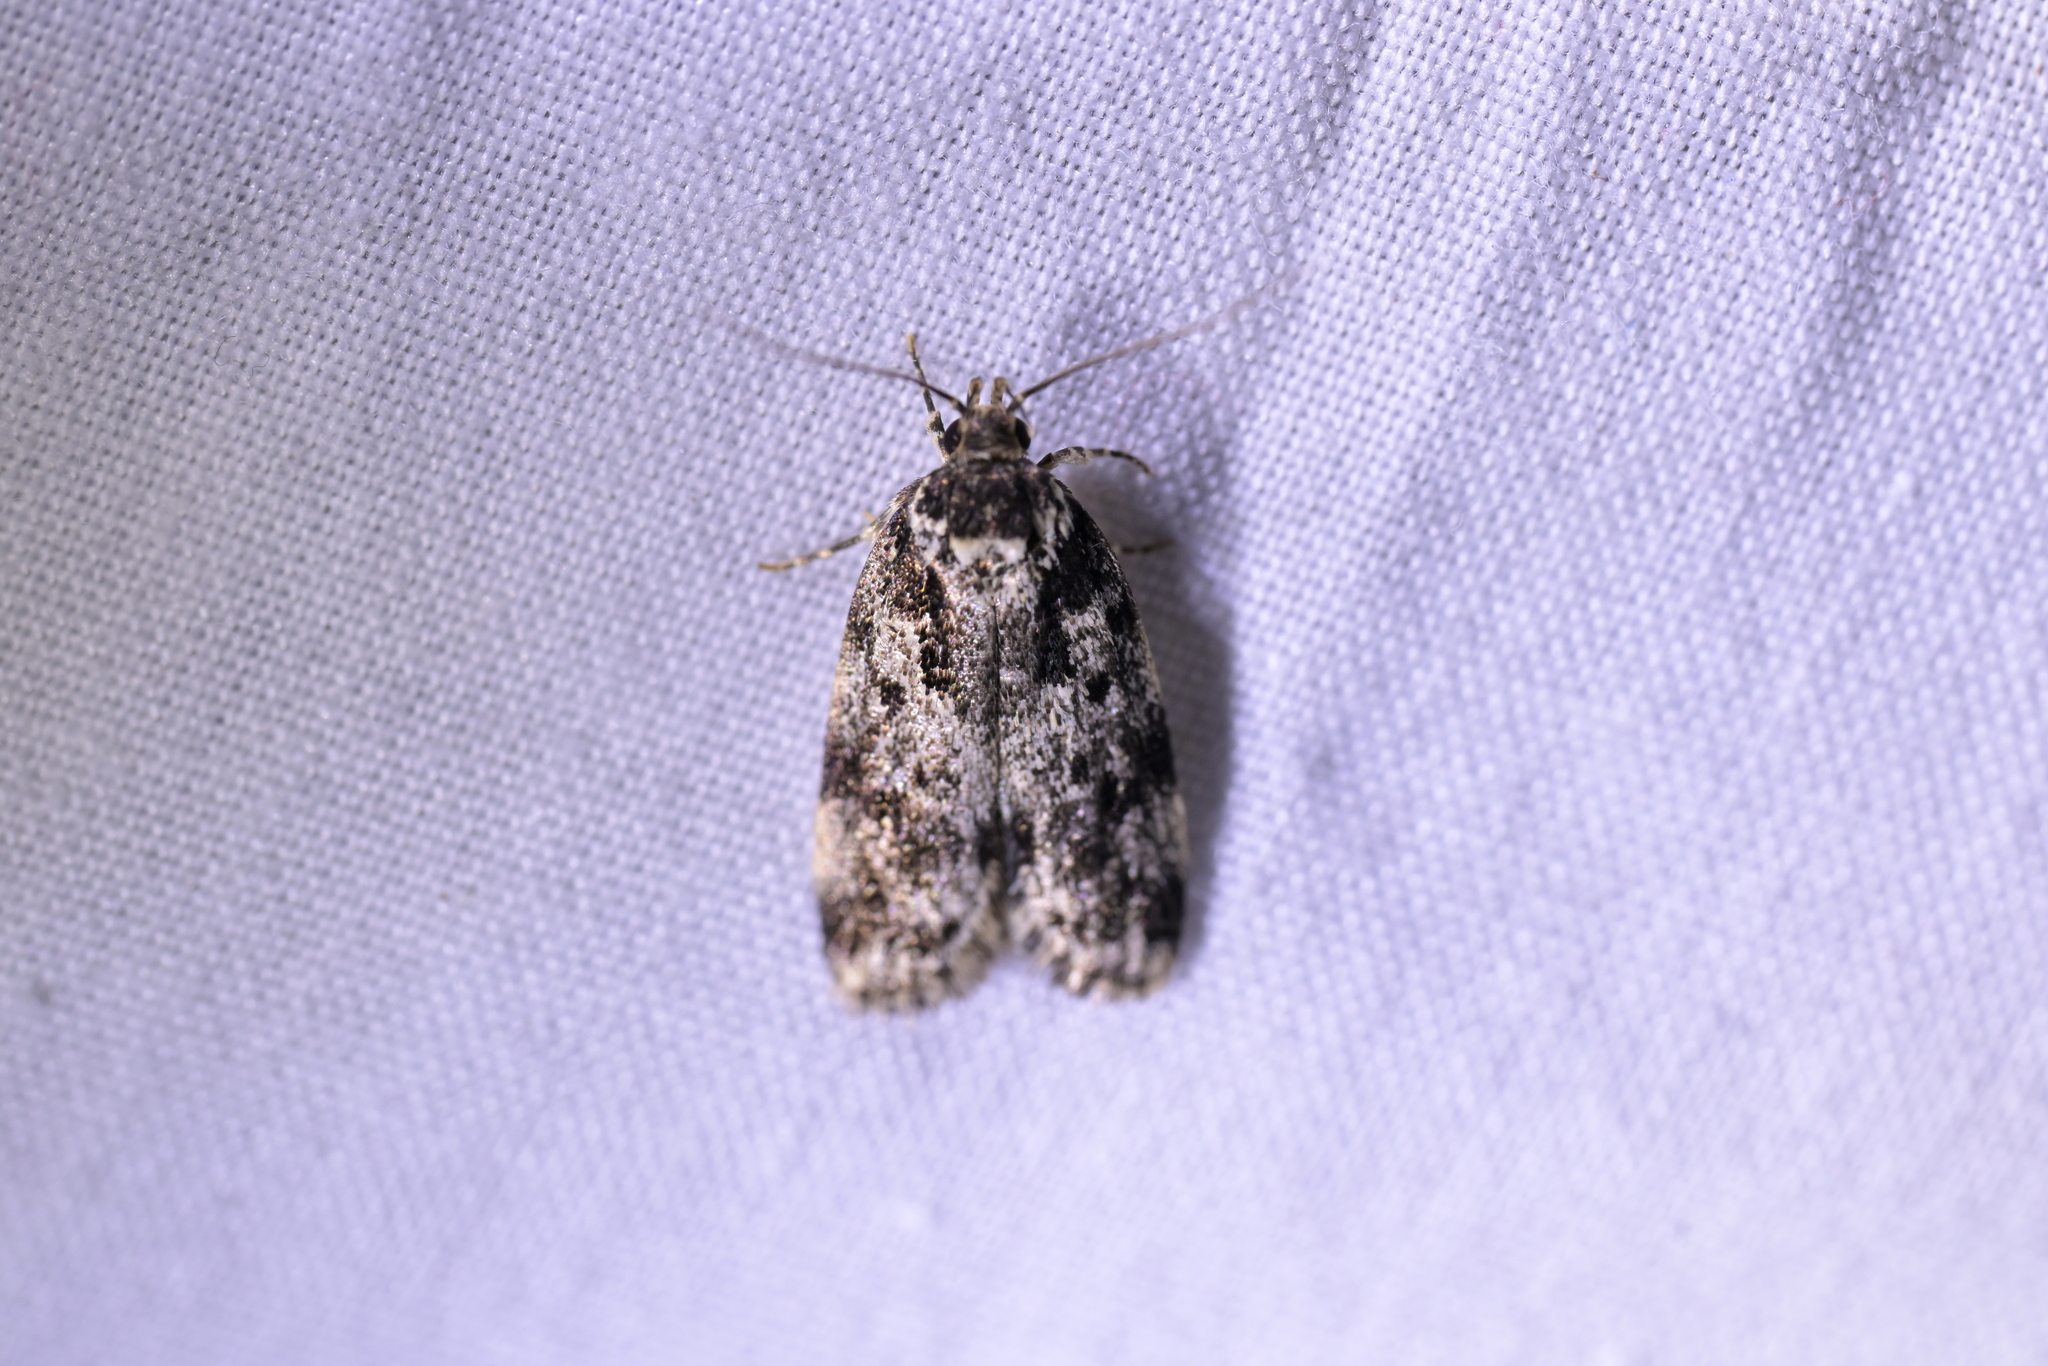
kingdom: Animalia
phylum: Arthropoda
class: Insecta
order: Lepidoptera
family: Oecophoridae
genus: Barea
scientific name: Barea
